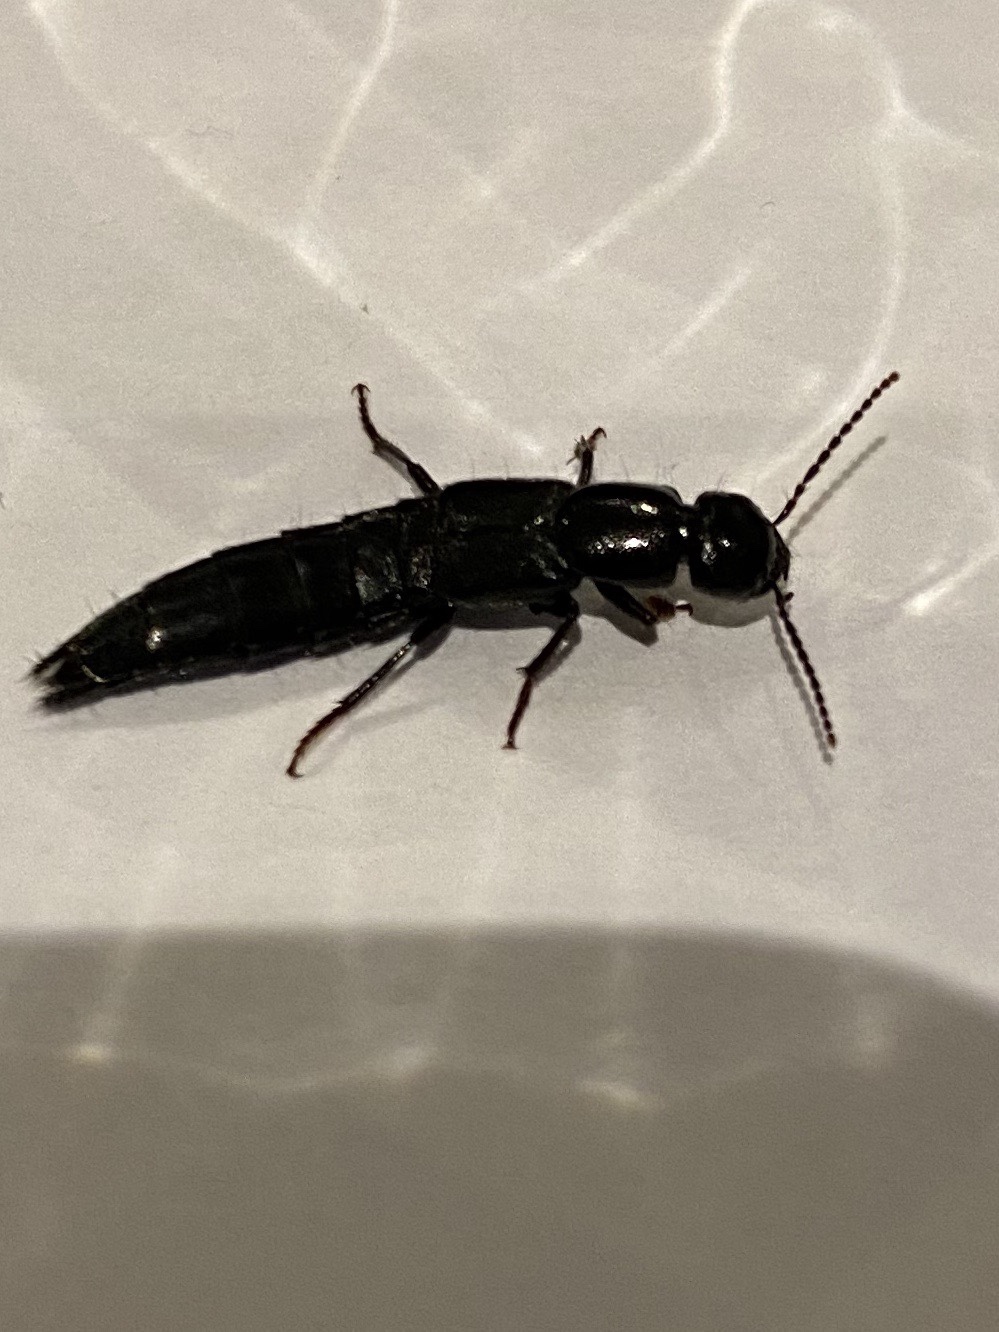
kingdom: Animalia
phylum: Arthropoda
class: Insecta
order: Coleoptera
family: Staphylinidae
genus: Tasgius
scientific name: Tasgius ater
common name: Staph beetle
